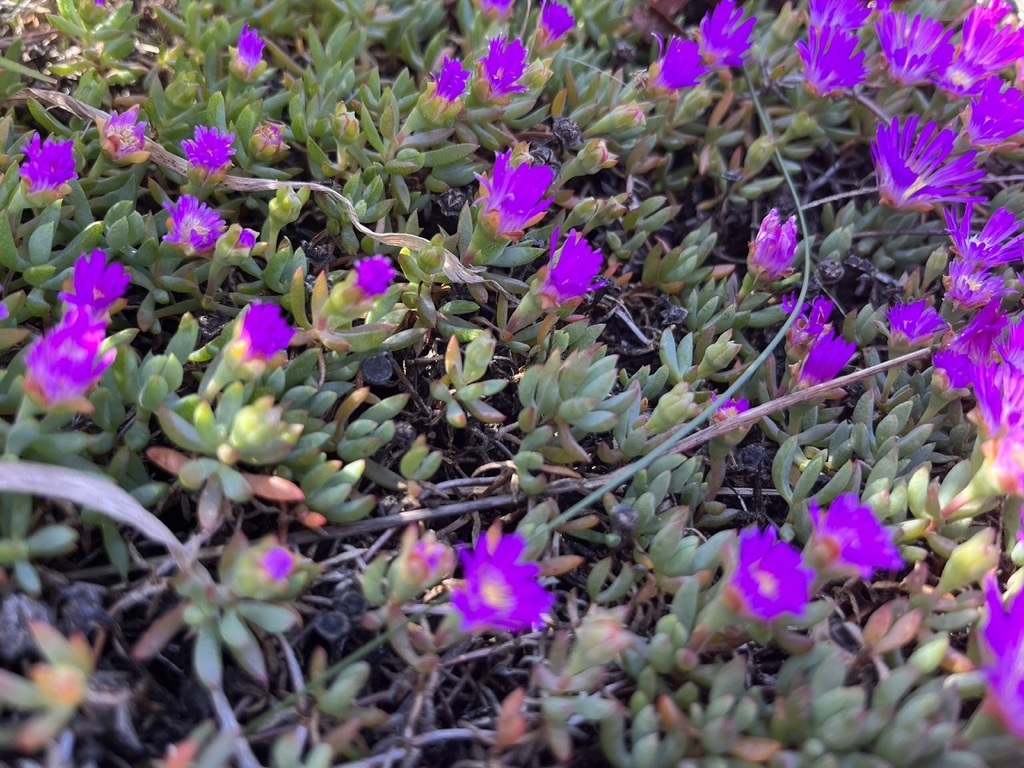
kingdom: Plantae
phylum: Tracheophyta
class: Magnoliopsida
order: Caryophyllales
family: Aizoaceae
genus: Lampranthus
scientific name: Lampranthus debilis
